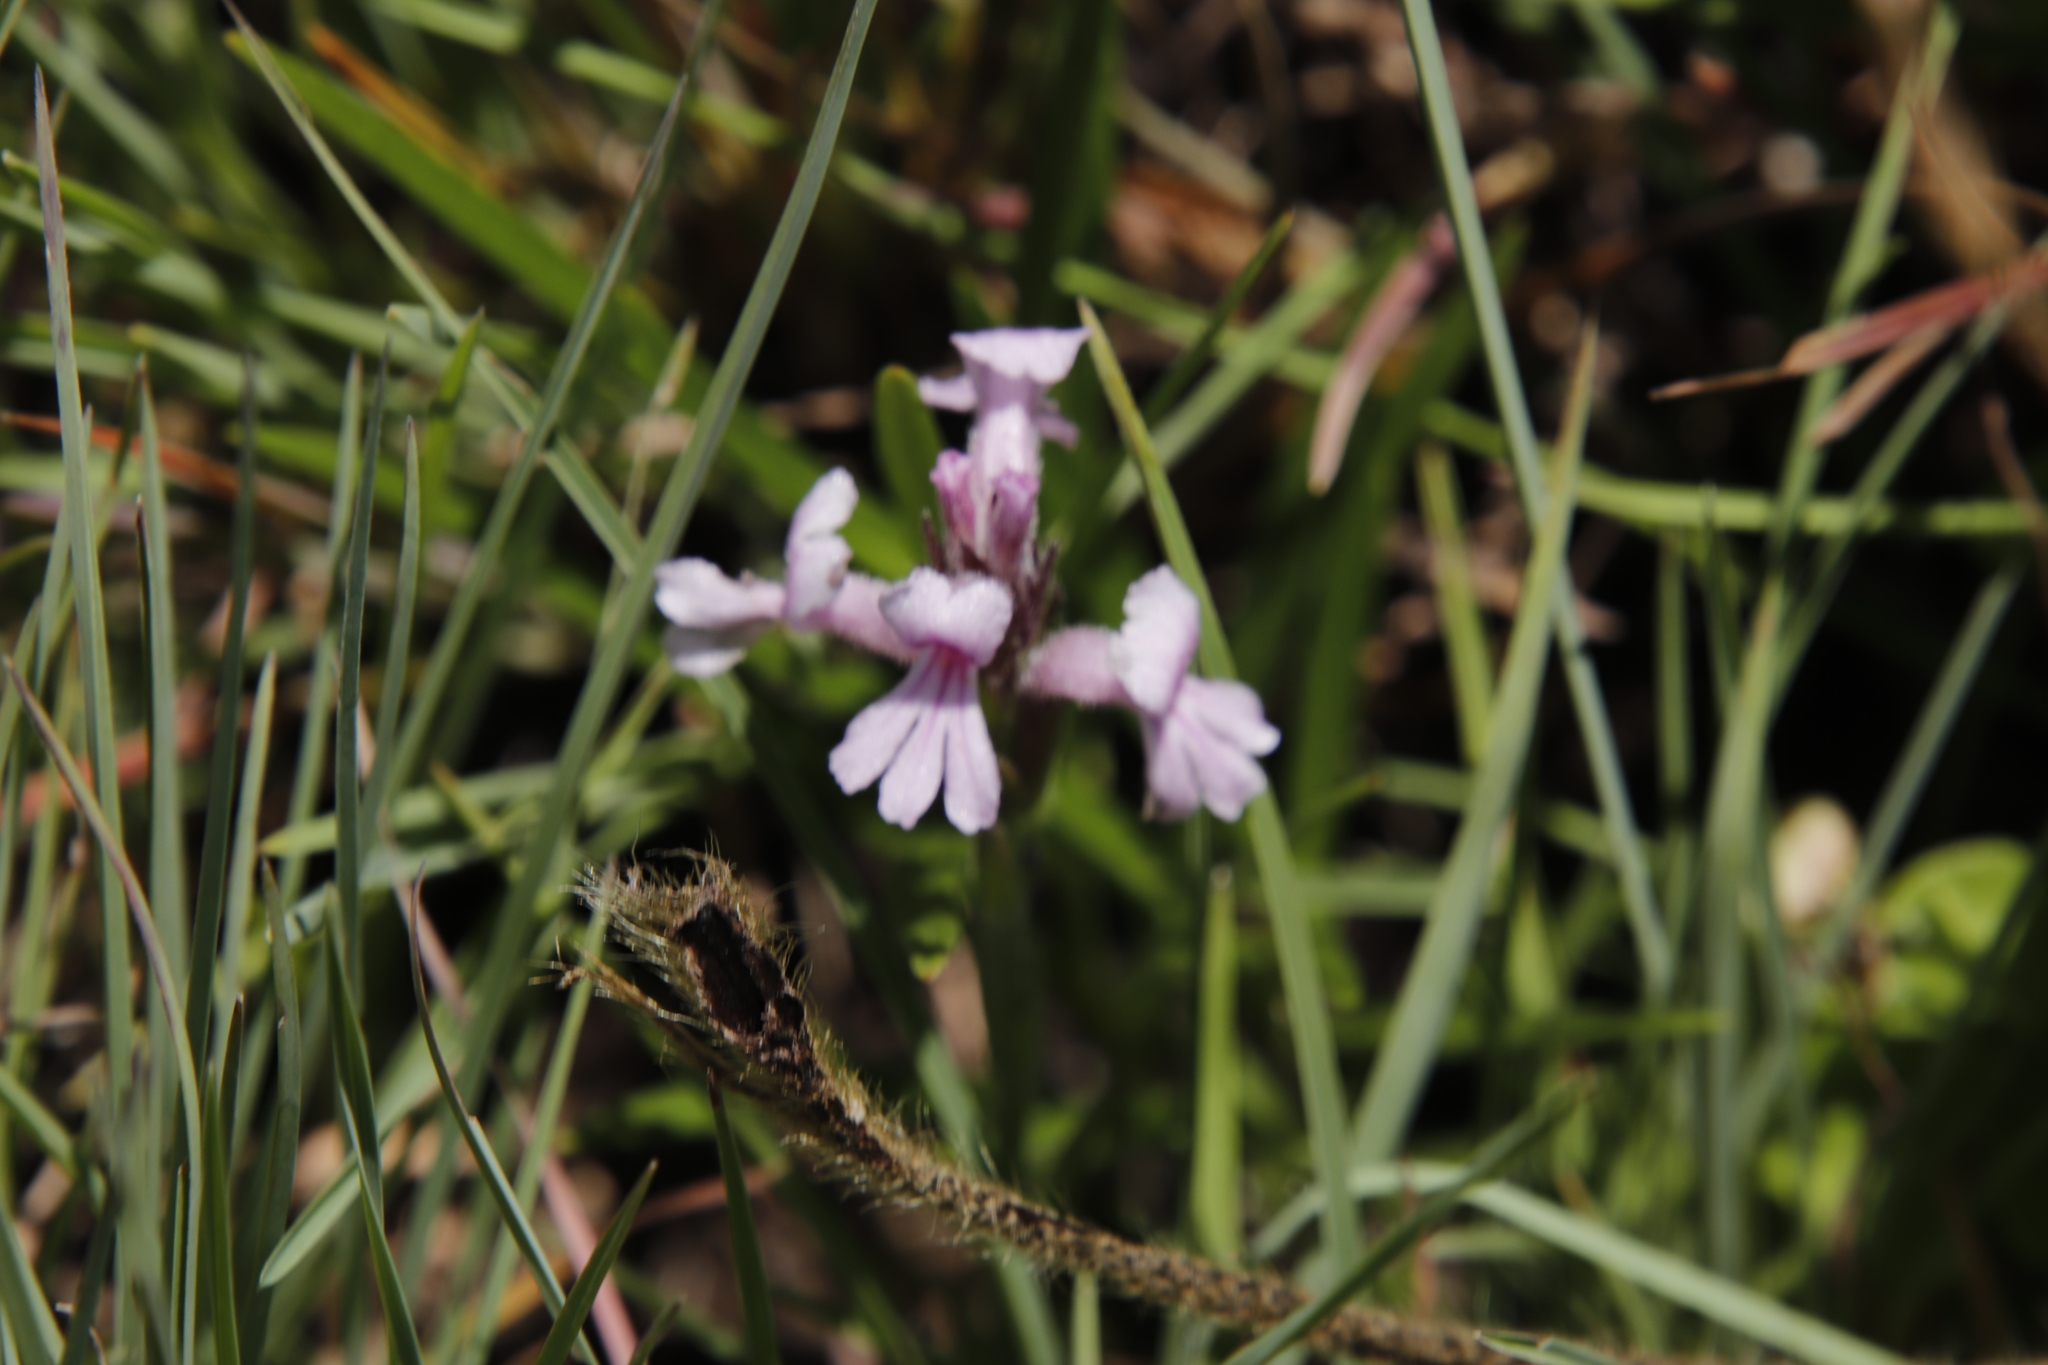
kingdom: Plantae
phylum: Tracheophyta
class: Magnoliopsida
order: Lamiales
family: Orobanchaceae
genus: Striga
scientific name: Striga bilabiata
